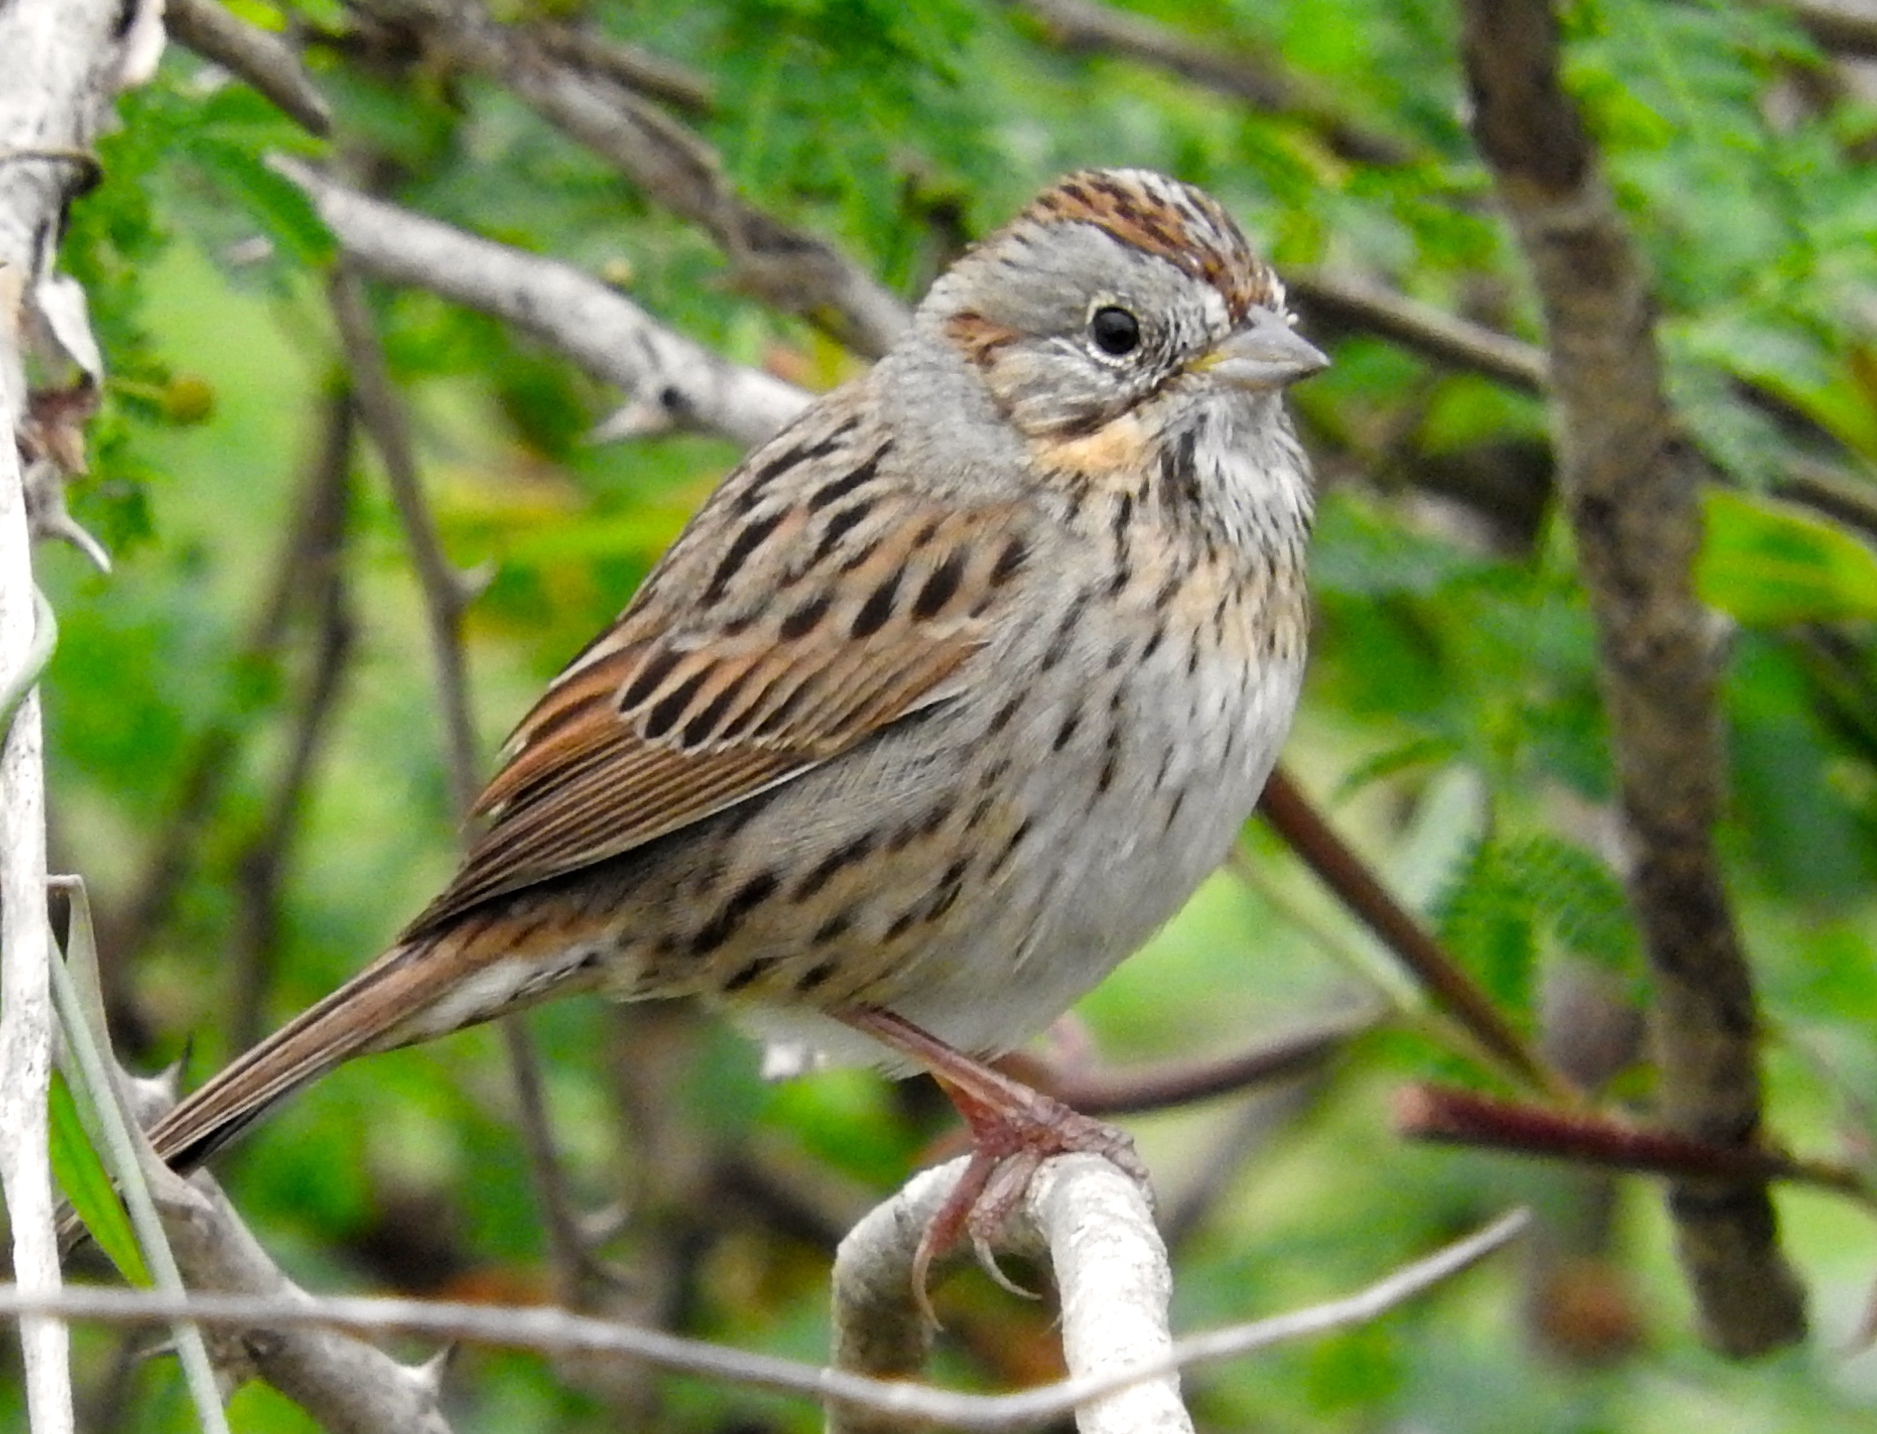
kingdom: Animalia
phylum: Chordata
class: Aves
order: Passeriformes
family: Passerellidae
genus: Melospiza
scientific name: Melospiza lincolnii
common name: Lincoln's sparrow
